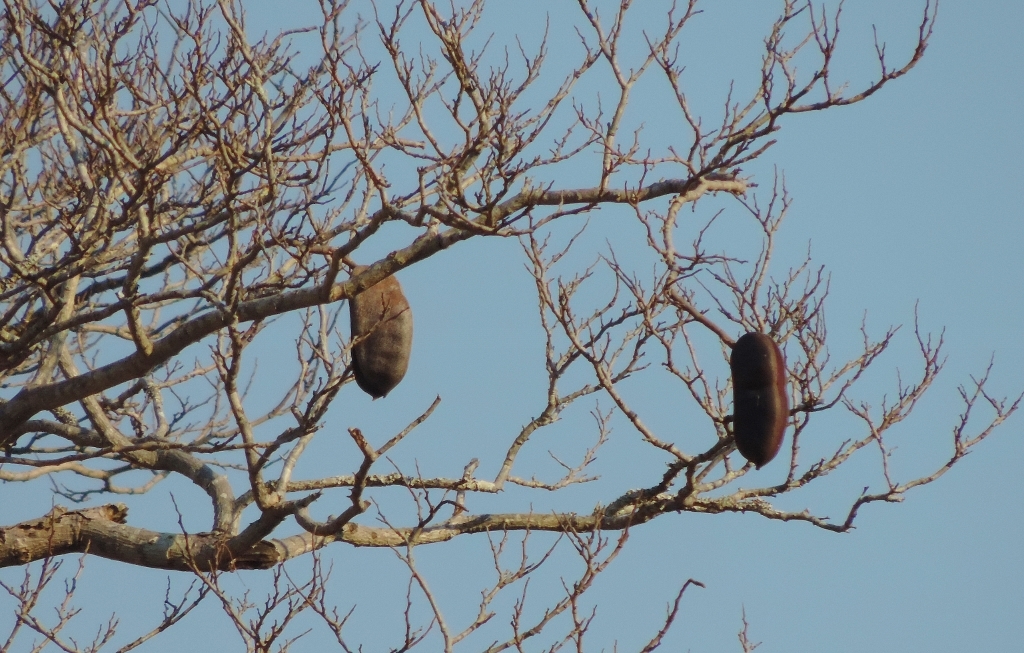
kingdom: Plantae
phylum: Tracheophyta
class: Magnoliopsida
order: Fabales
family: Fabaceae
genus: Afzelia
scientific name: Afzelia quanzensis
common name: Pod mahogany
